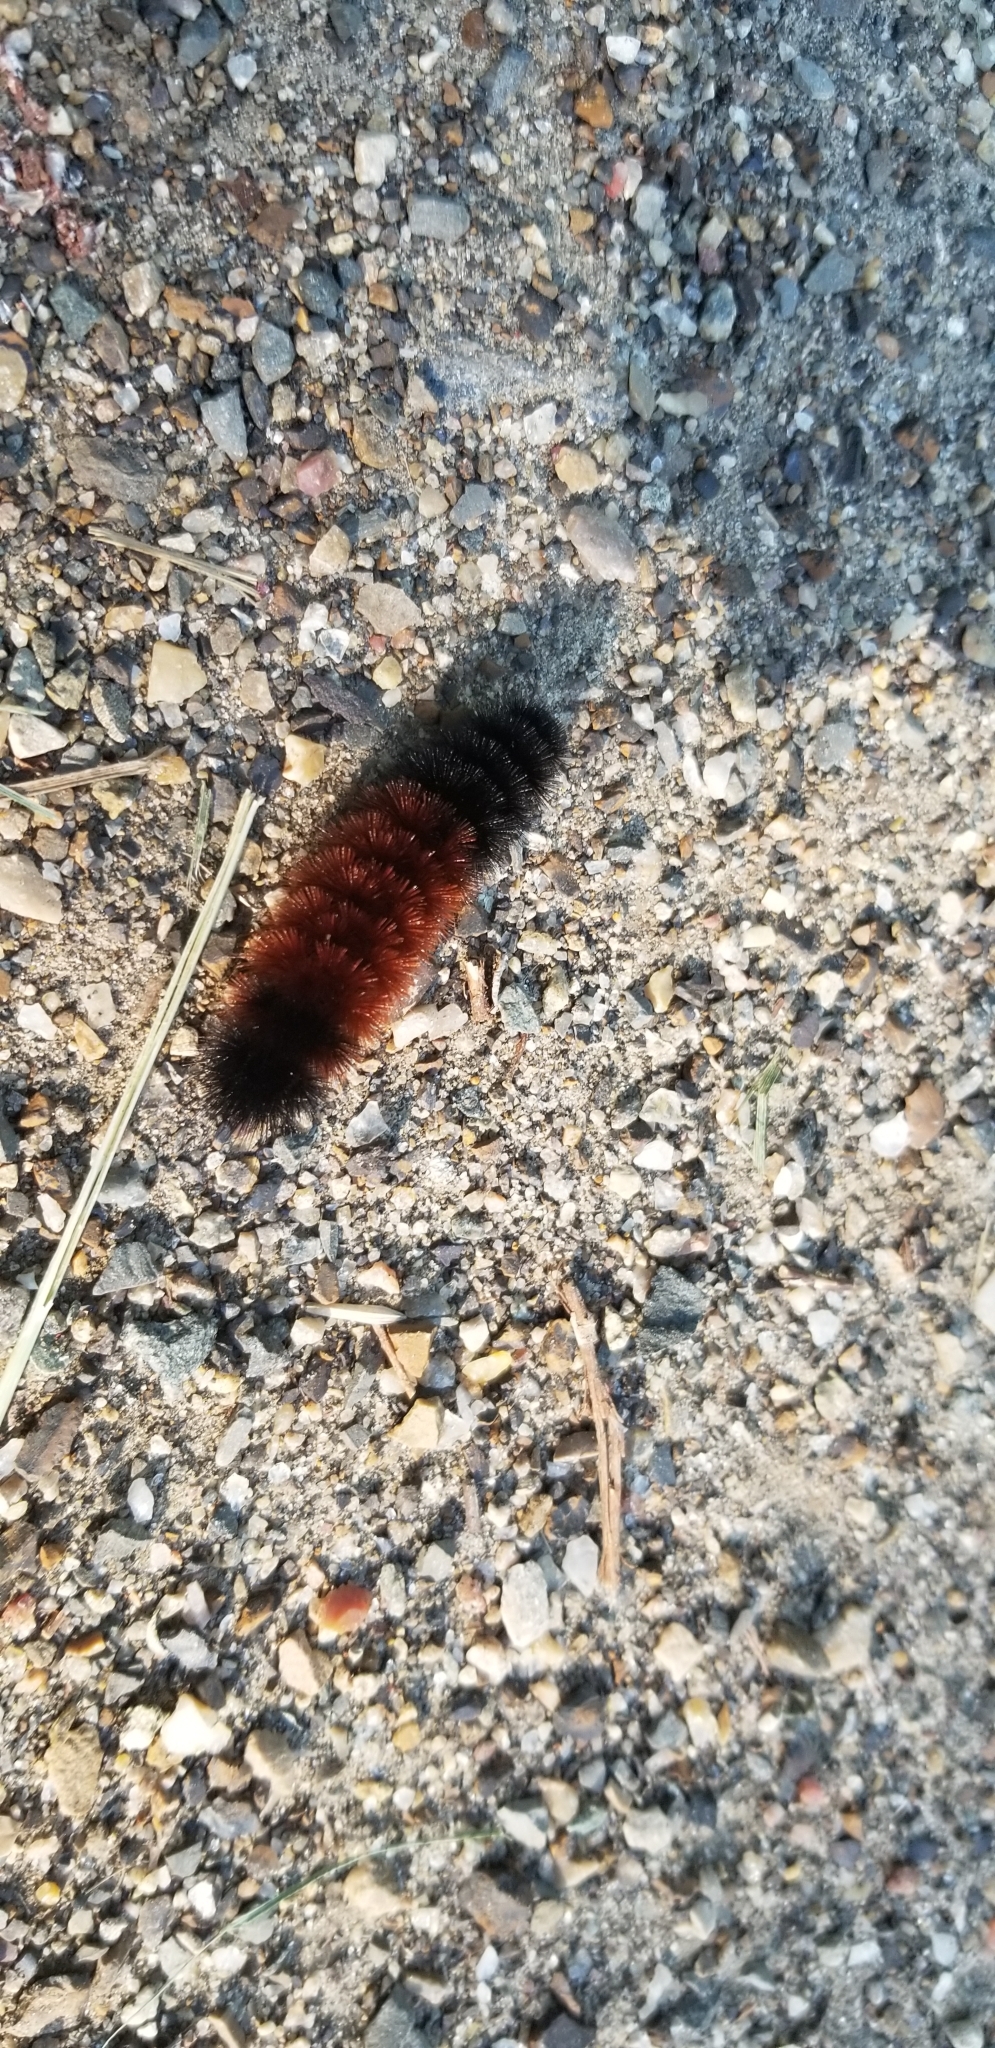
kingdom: Animalia
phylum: Arthropoda
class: Insecta
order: Lepidoptera
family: Erebidae
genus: Pyrrharctia
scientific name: Pyrrharctia isabella
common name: Isabella tiger moth
